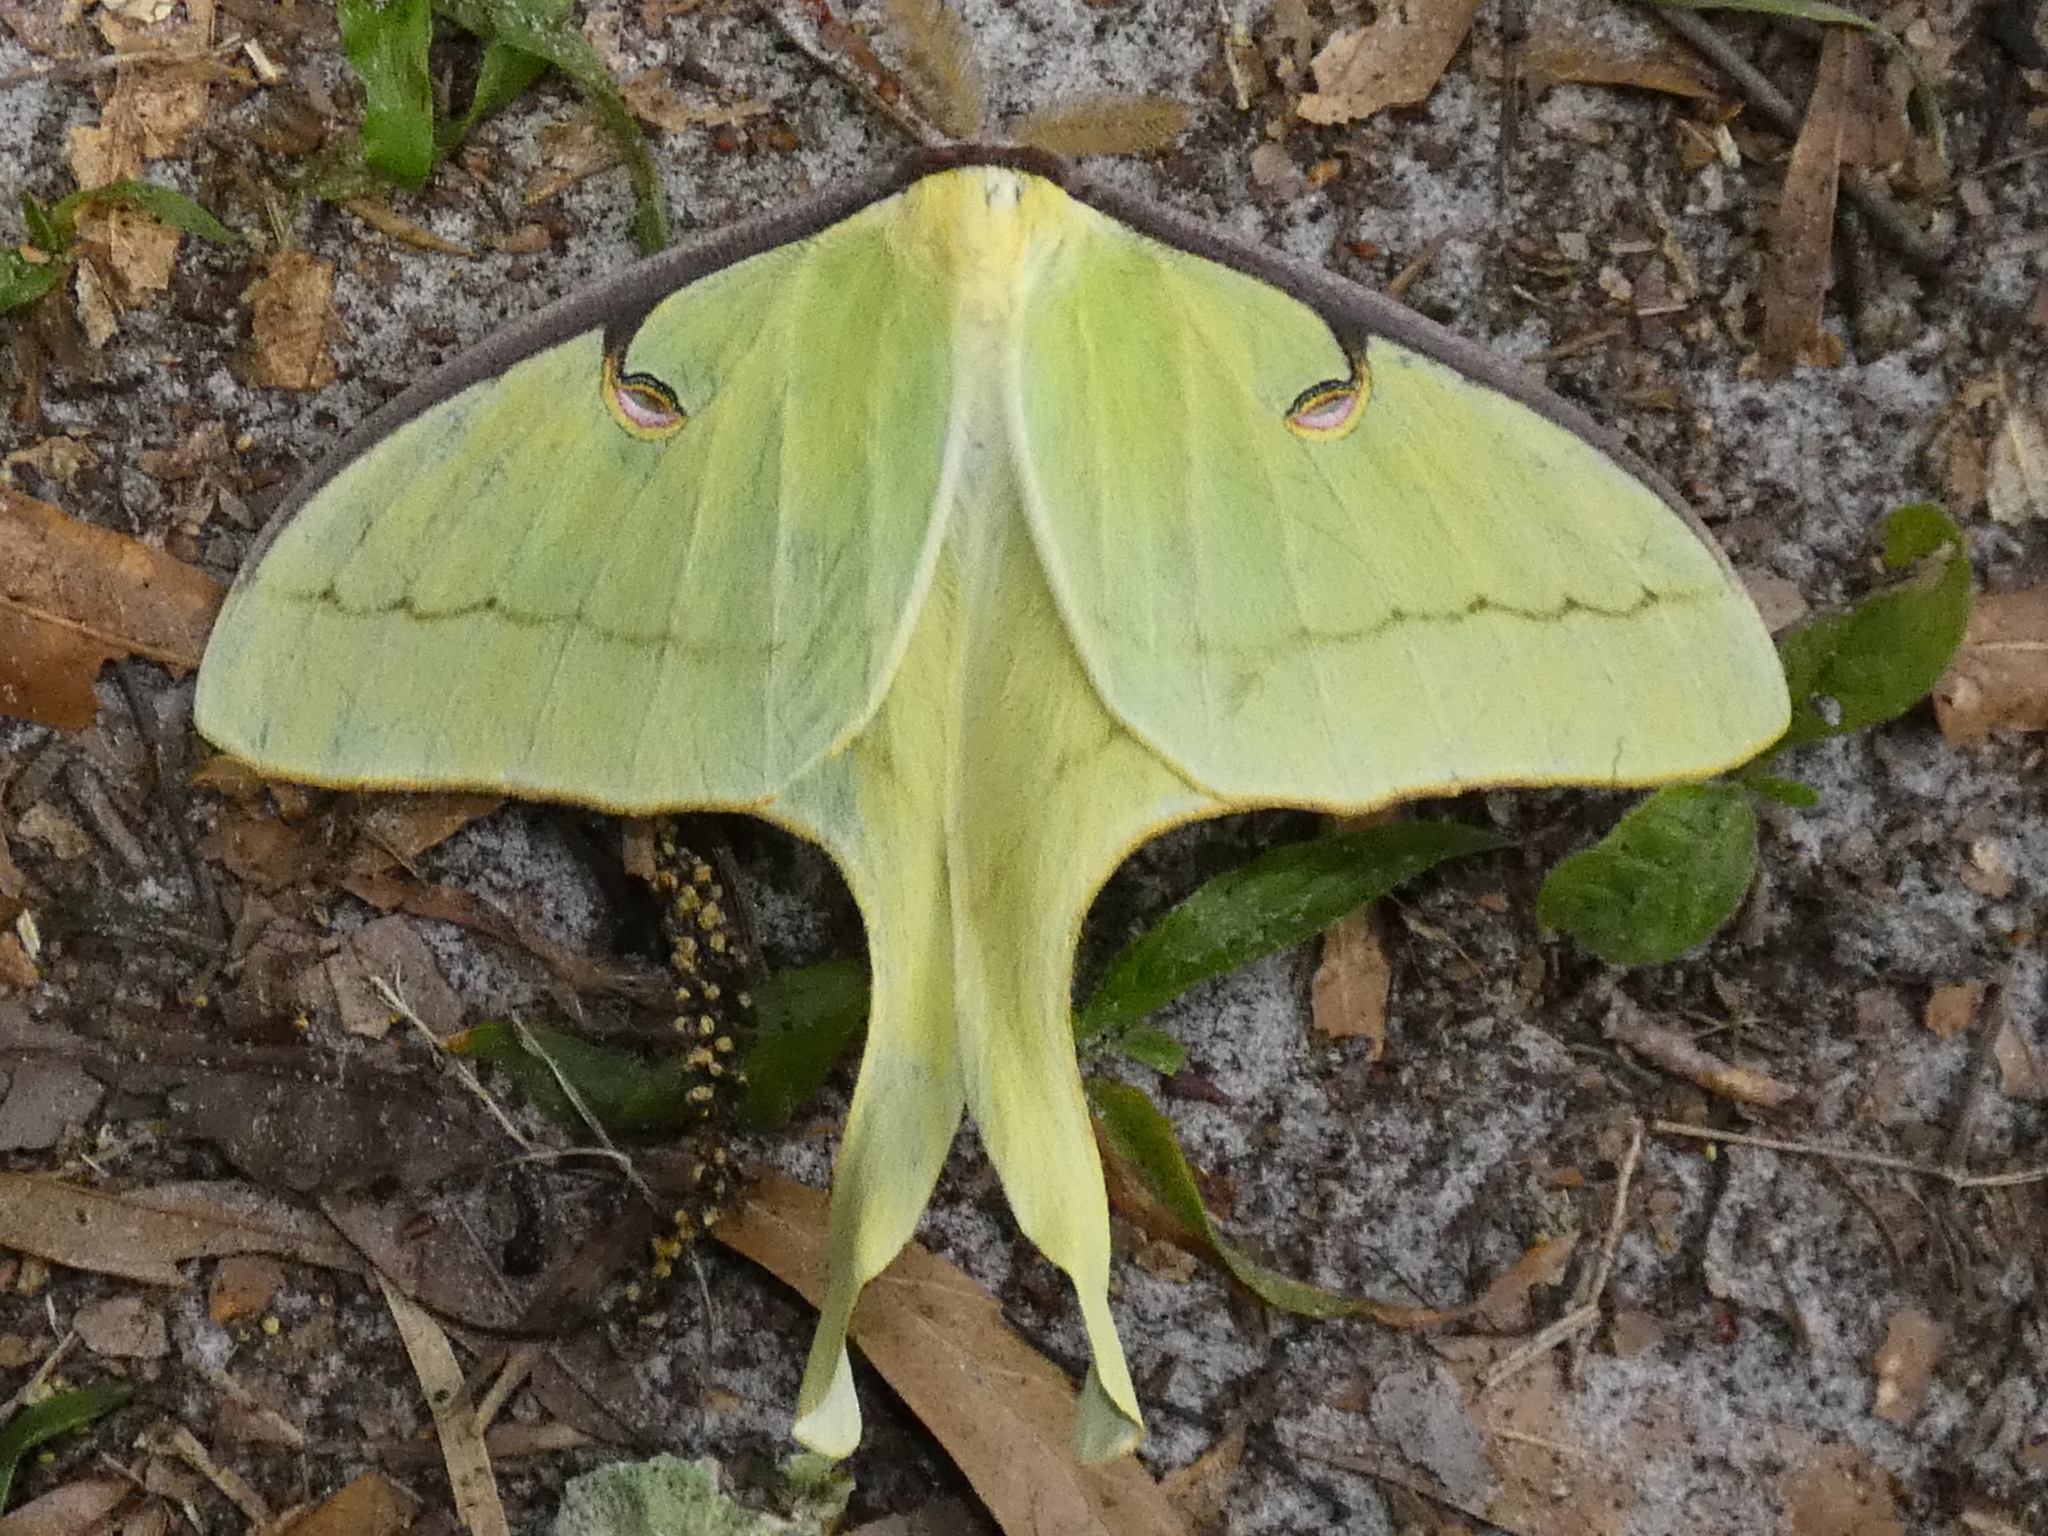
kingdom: Animalia
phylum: Arthropoda
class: Insecta
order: Lepidoptera
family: Saturniidae
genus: Actias
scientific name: Actias luna
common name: Luna moth
